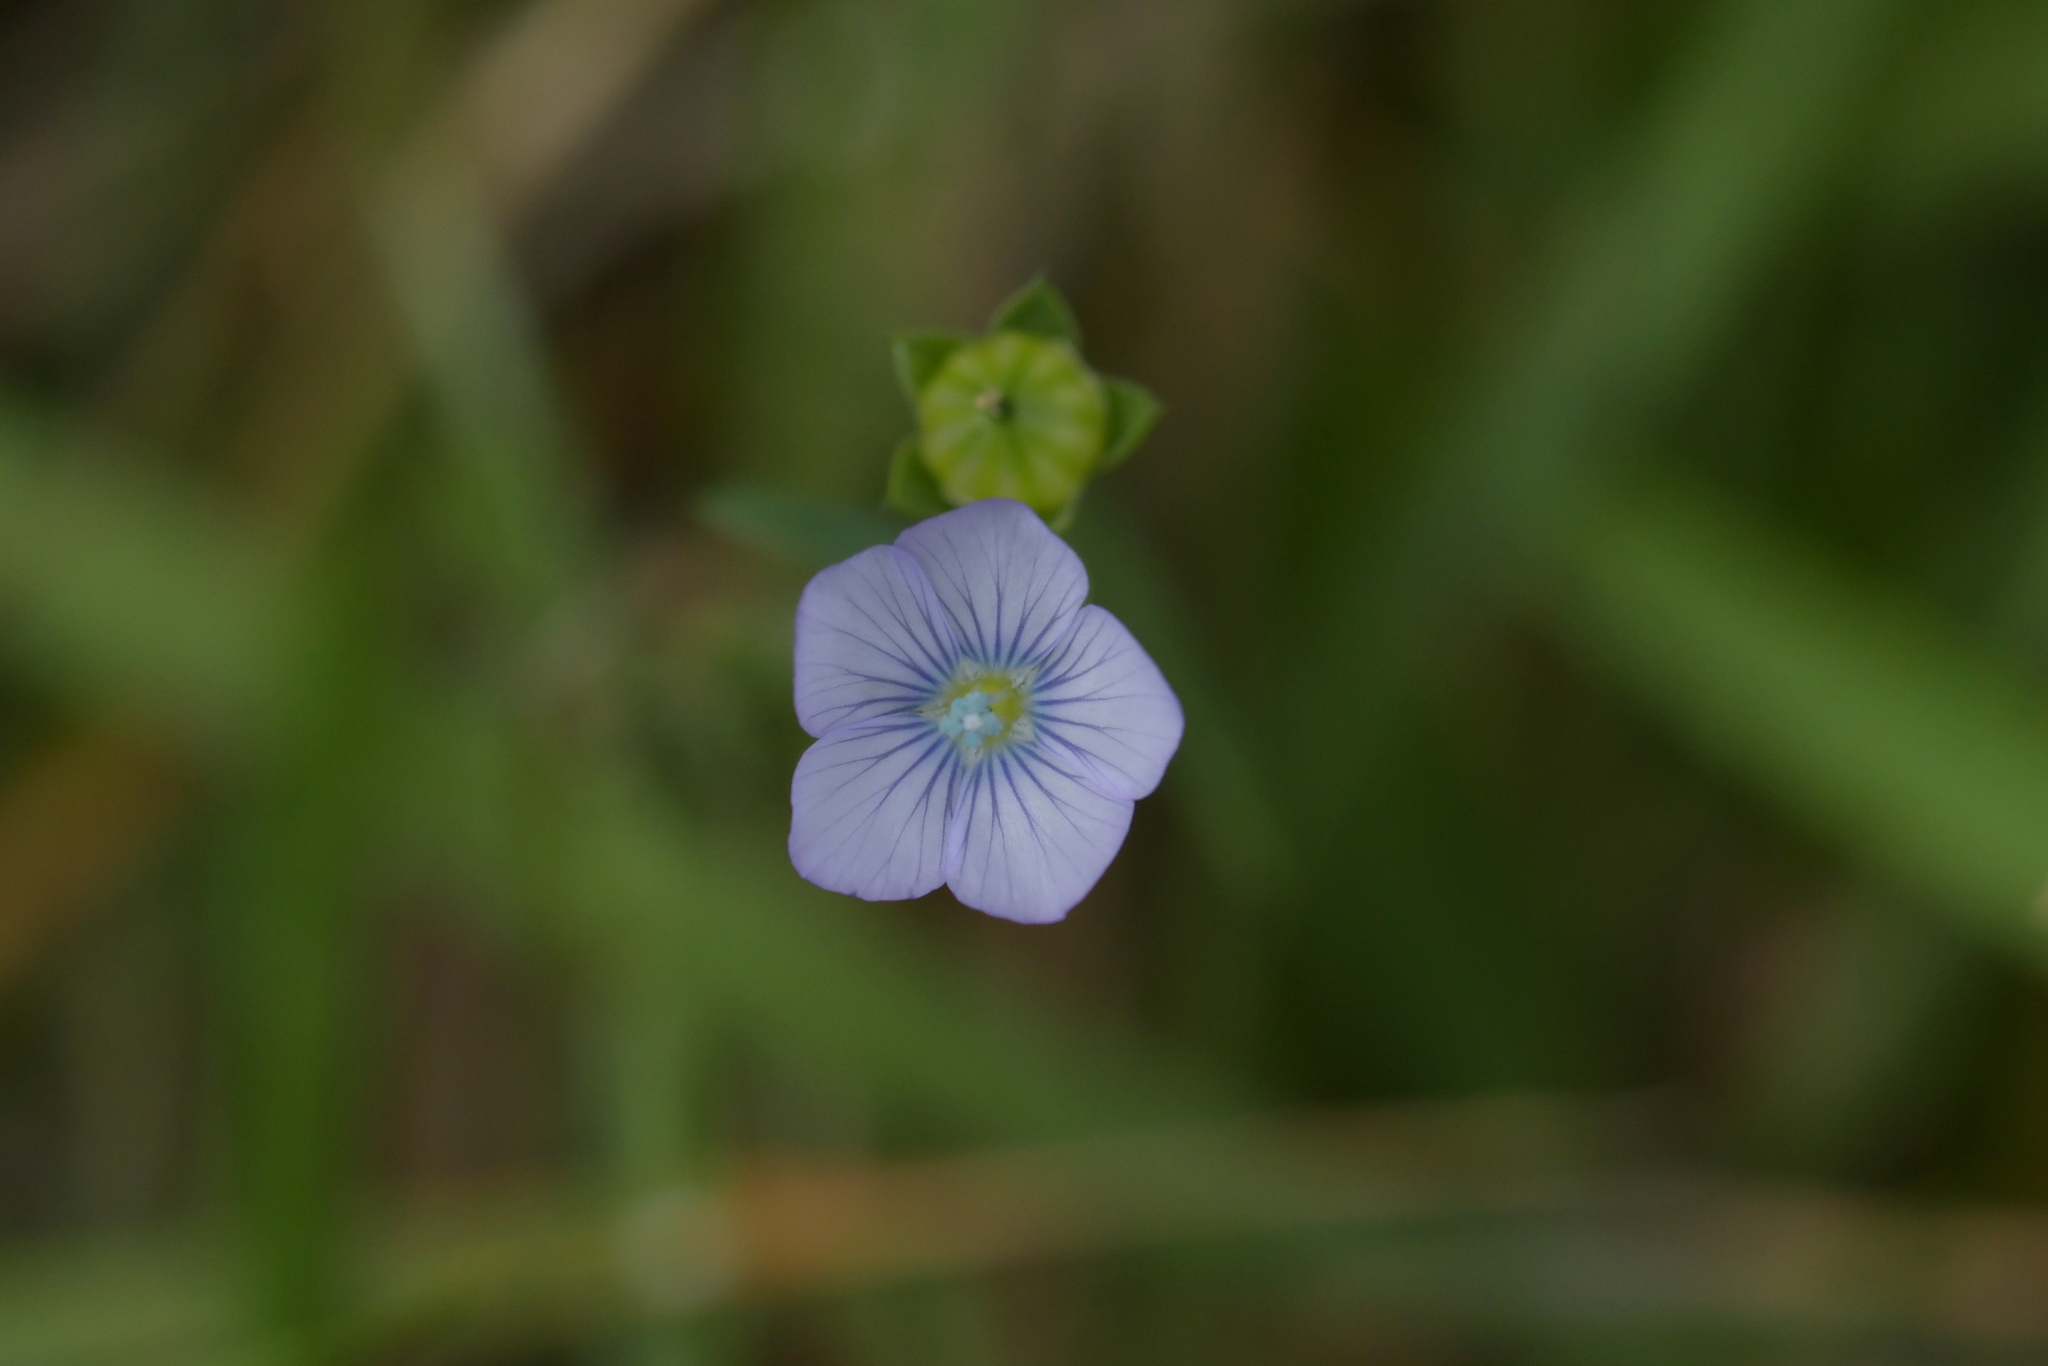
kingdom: Plantae
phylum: Tracheophyta
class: Magnoliopsida
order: Malpighiales
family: Linaceae
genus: Linum
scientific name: Linum bienne
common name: Pale flax
